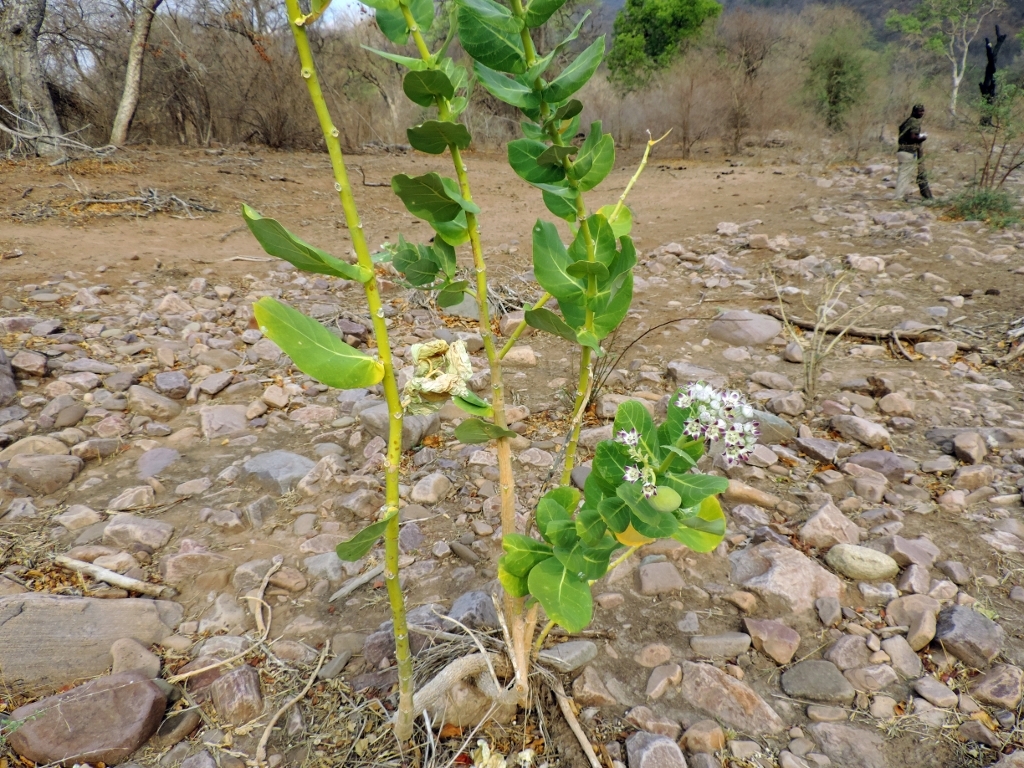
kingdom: Plantae
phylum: Tracheophyta
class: Magnoliopsida
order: Gentianales
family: Apocynaceae
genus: Calotropis
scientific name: Calotropis procera
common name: Roostertree
